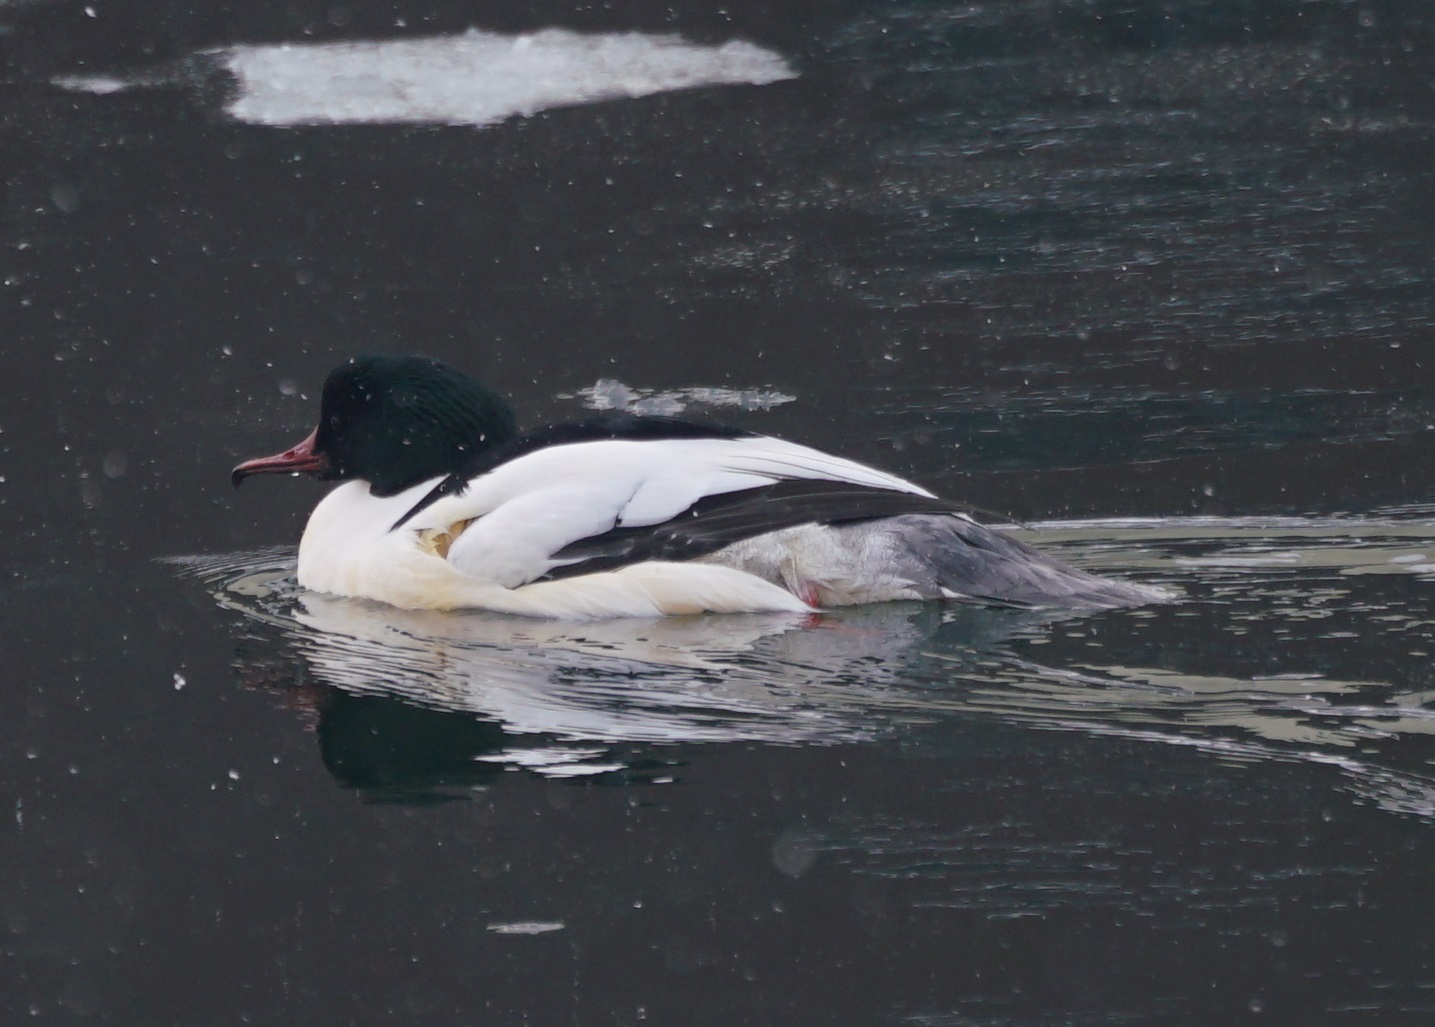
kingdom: Animalia
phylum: Chordata
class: Aves
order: Anseriformes
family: Anatidae
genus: Mergus
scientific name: Mergus merganser
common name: Common merganser
